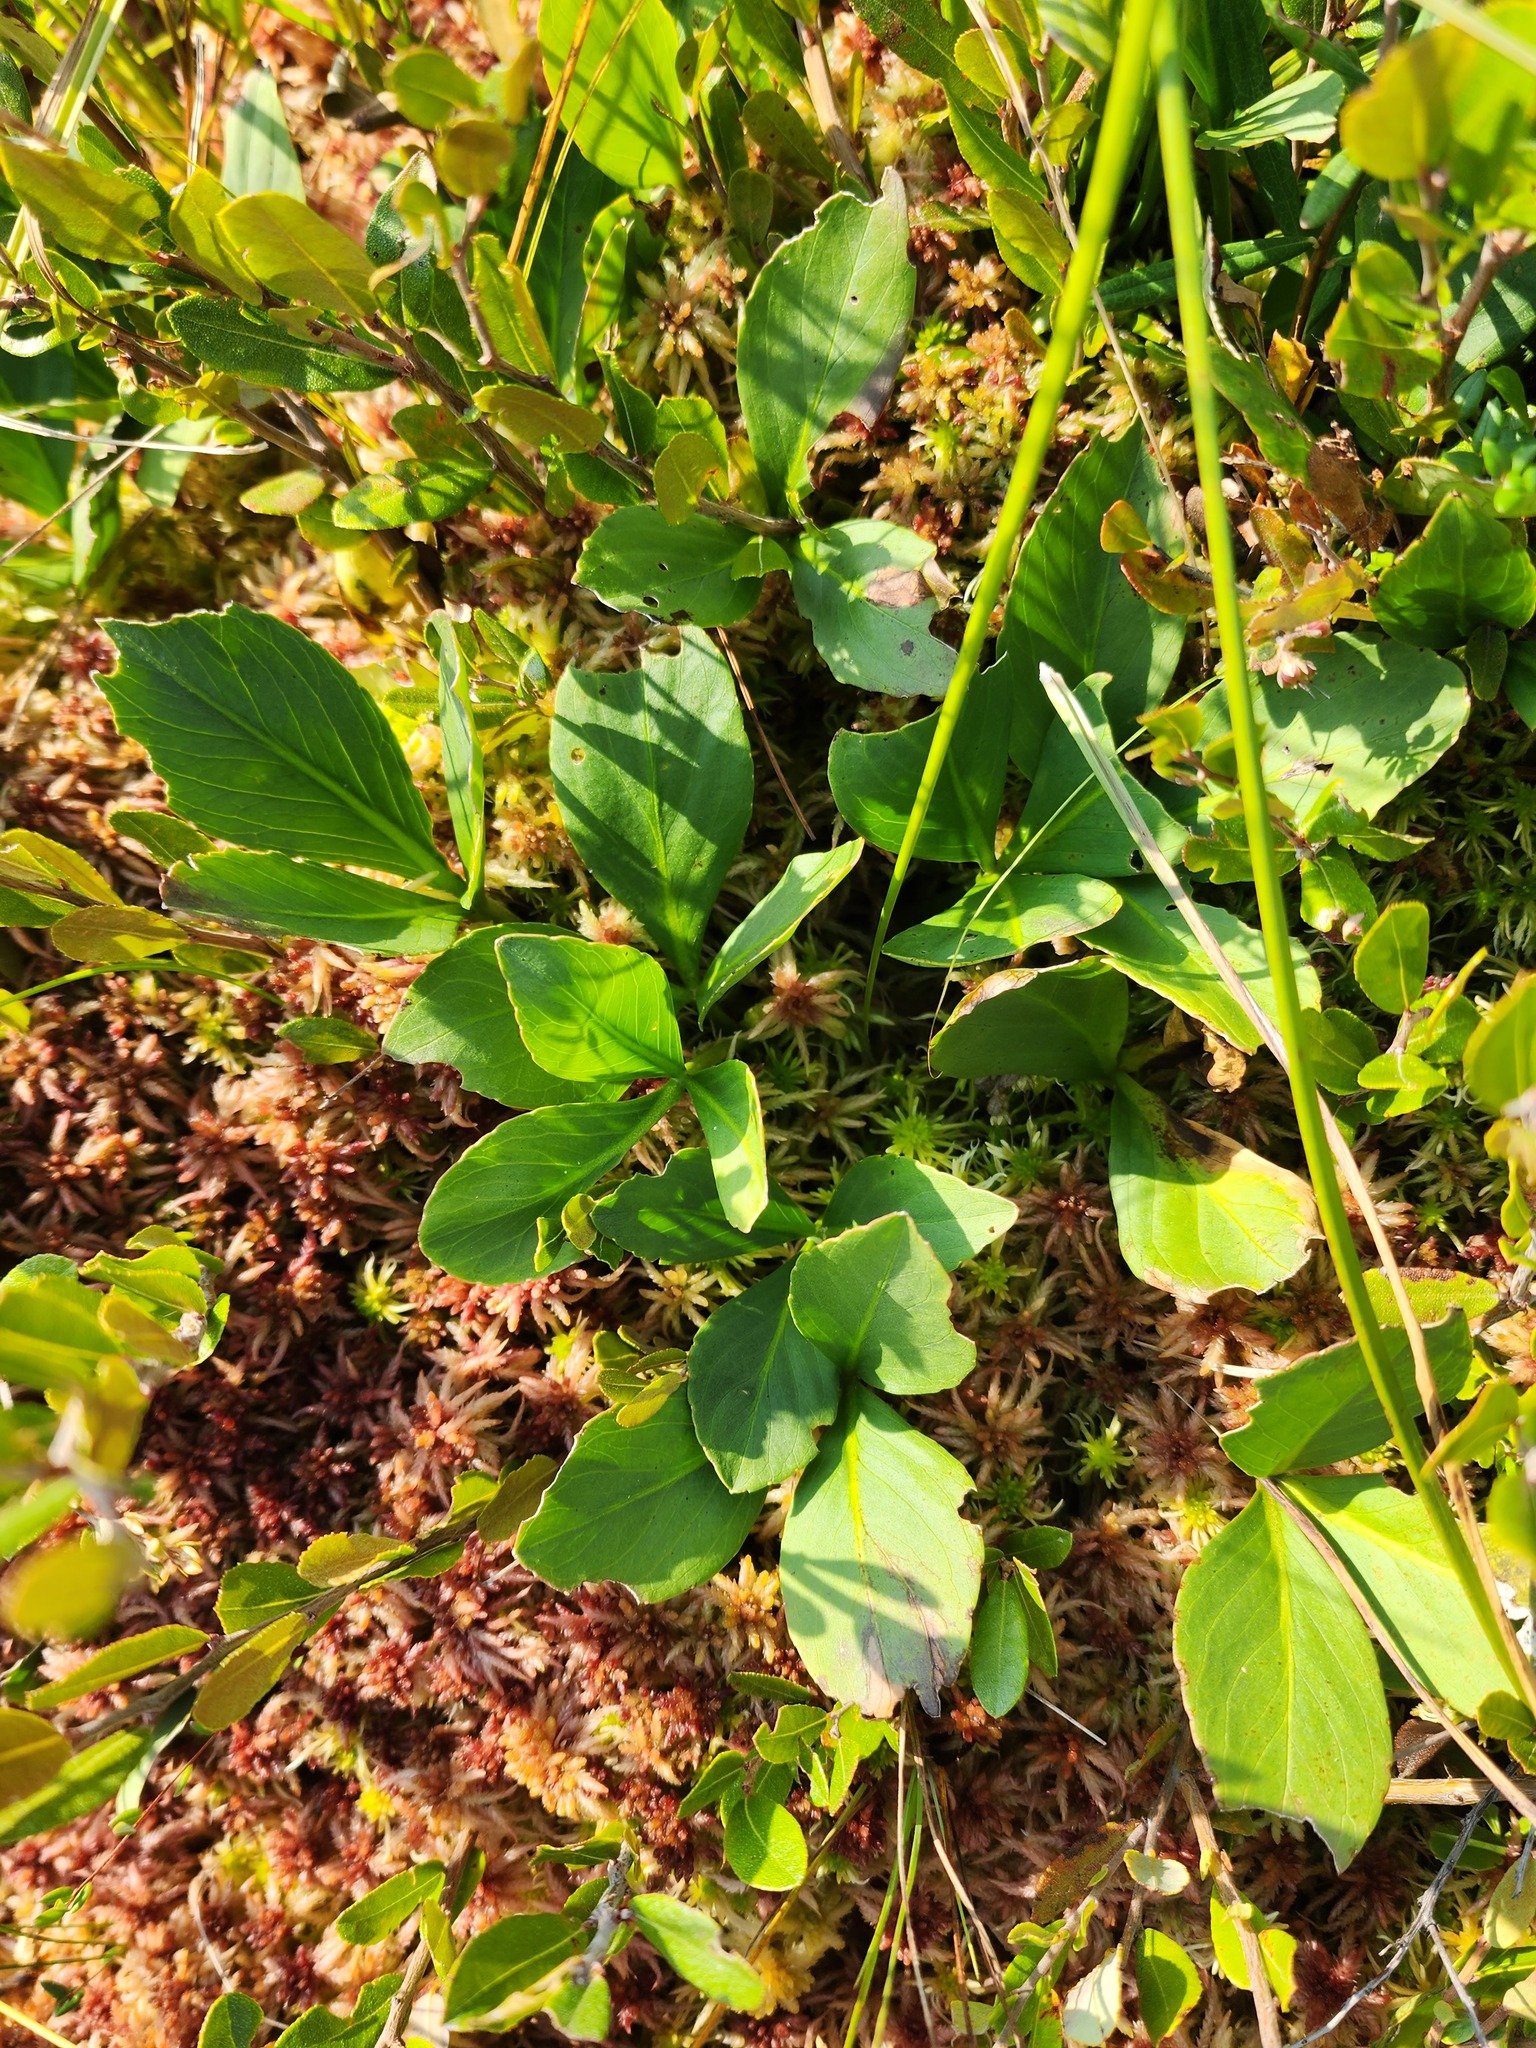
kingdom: Plantae
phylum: Tracheophyta
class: Magnoliopsida
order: Asterales
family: Menyanthaceae
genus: Menyanthes
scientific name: Menyanthes trifoliata
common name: Bogbean
